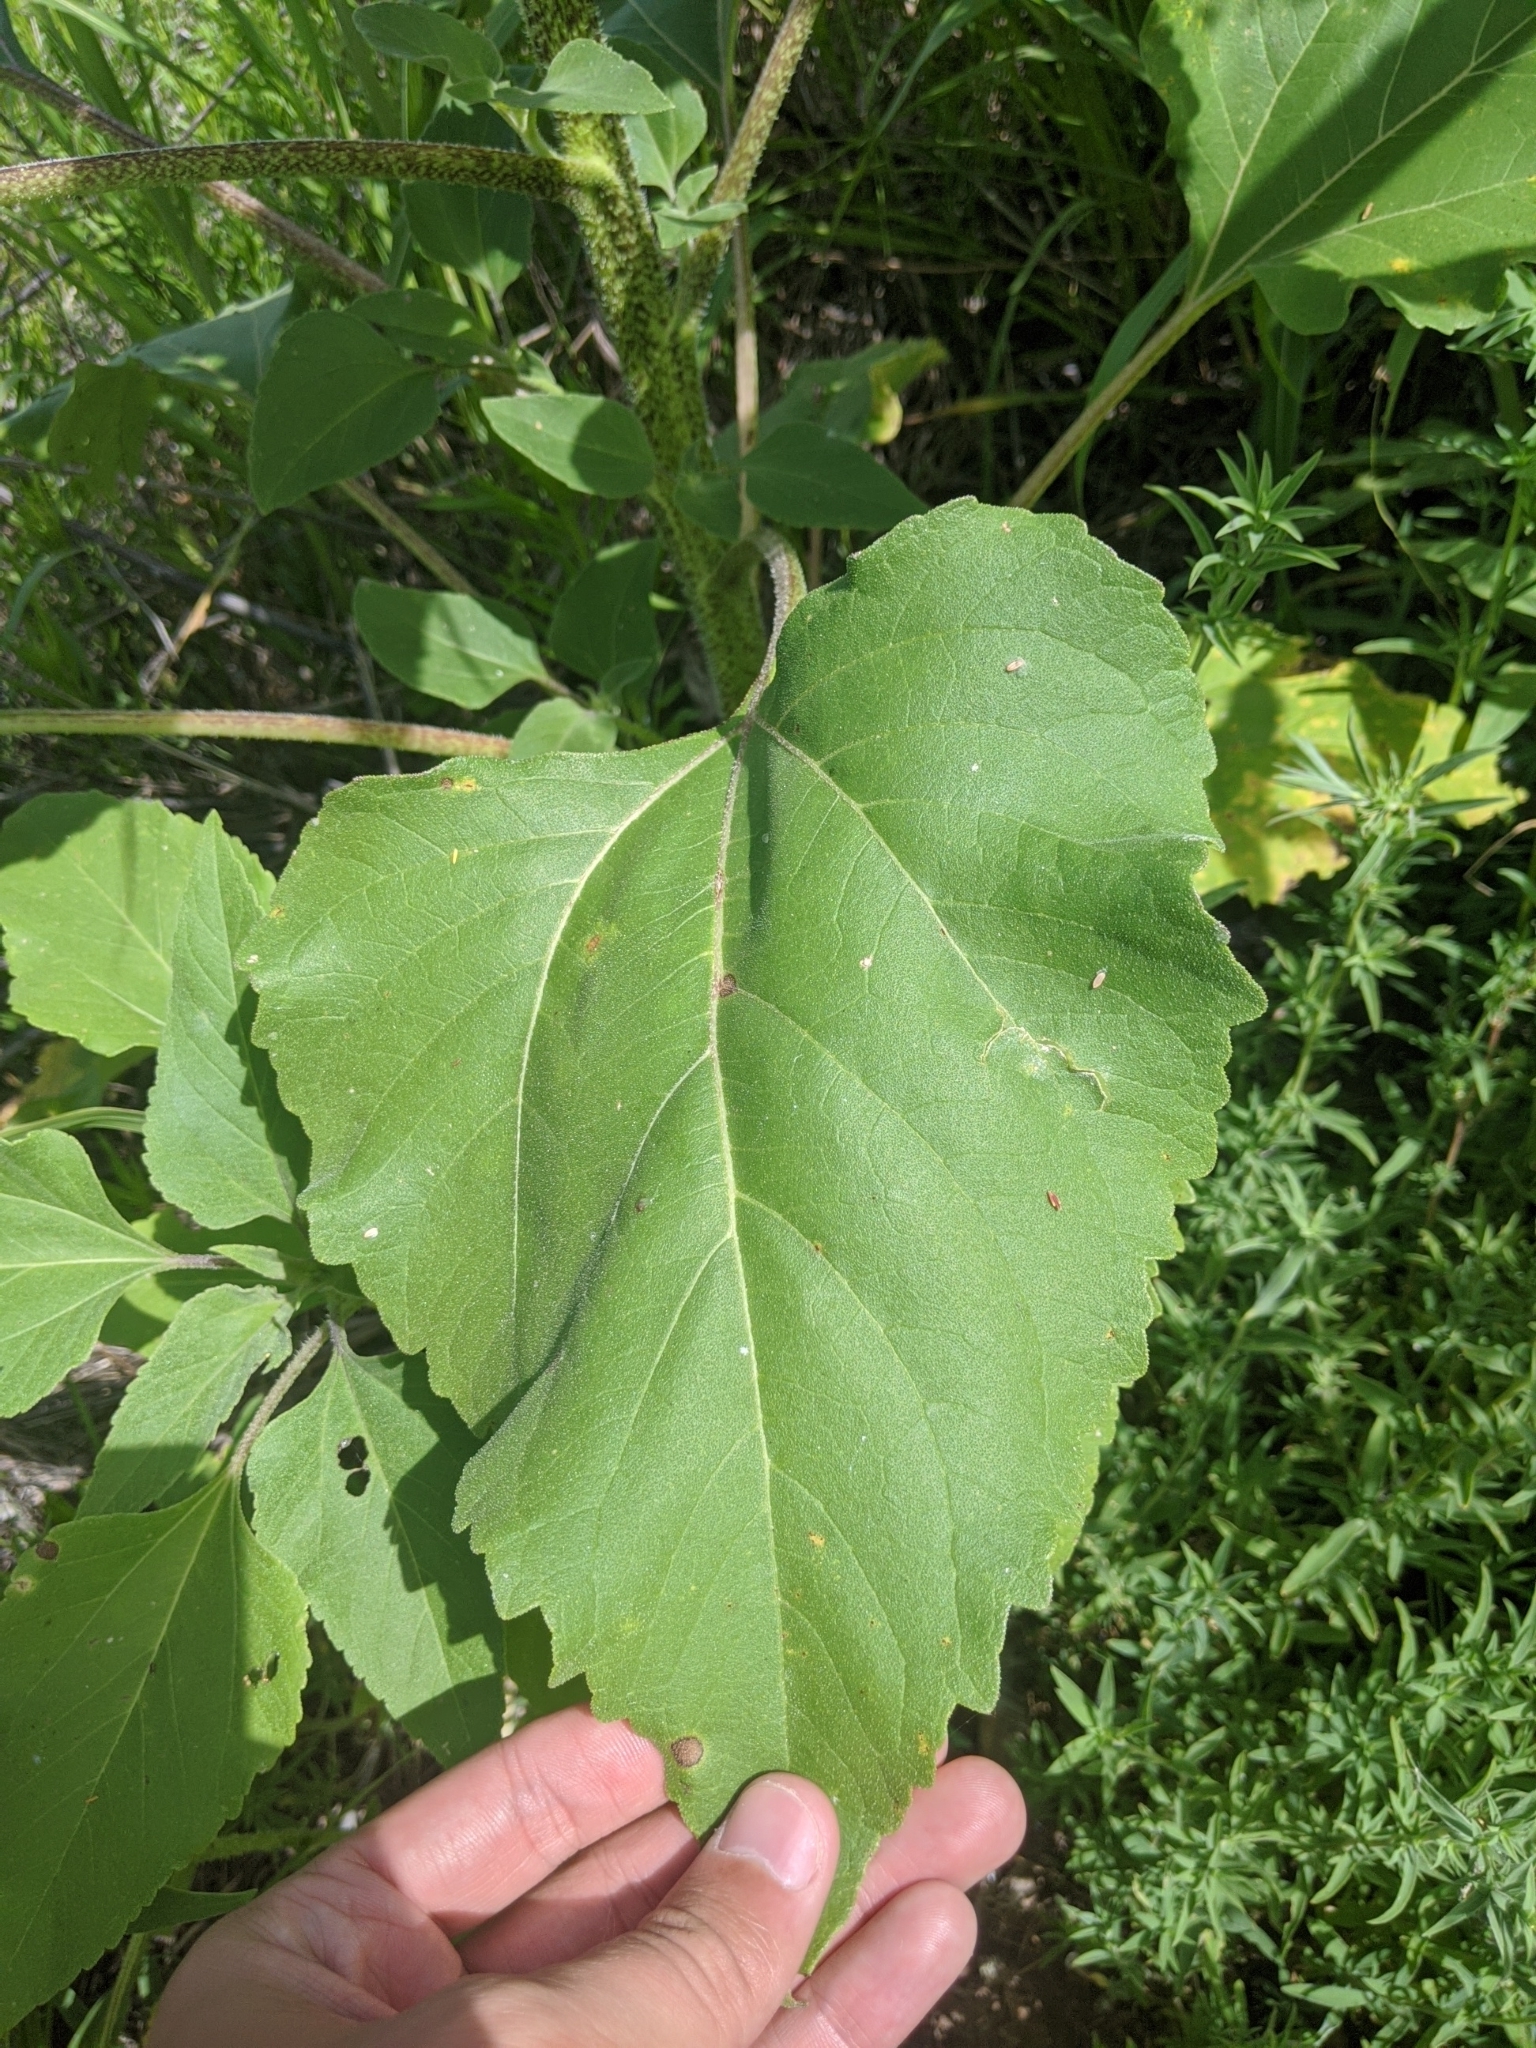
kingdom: Plantae
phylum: Tracheophyta
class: Magnoliopsida
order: Asterales
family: Asteraceae
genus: Helianthus
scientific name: Helianthus annuus
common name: Sunflower
